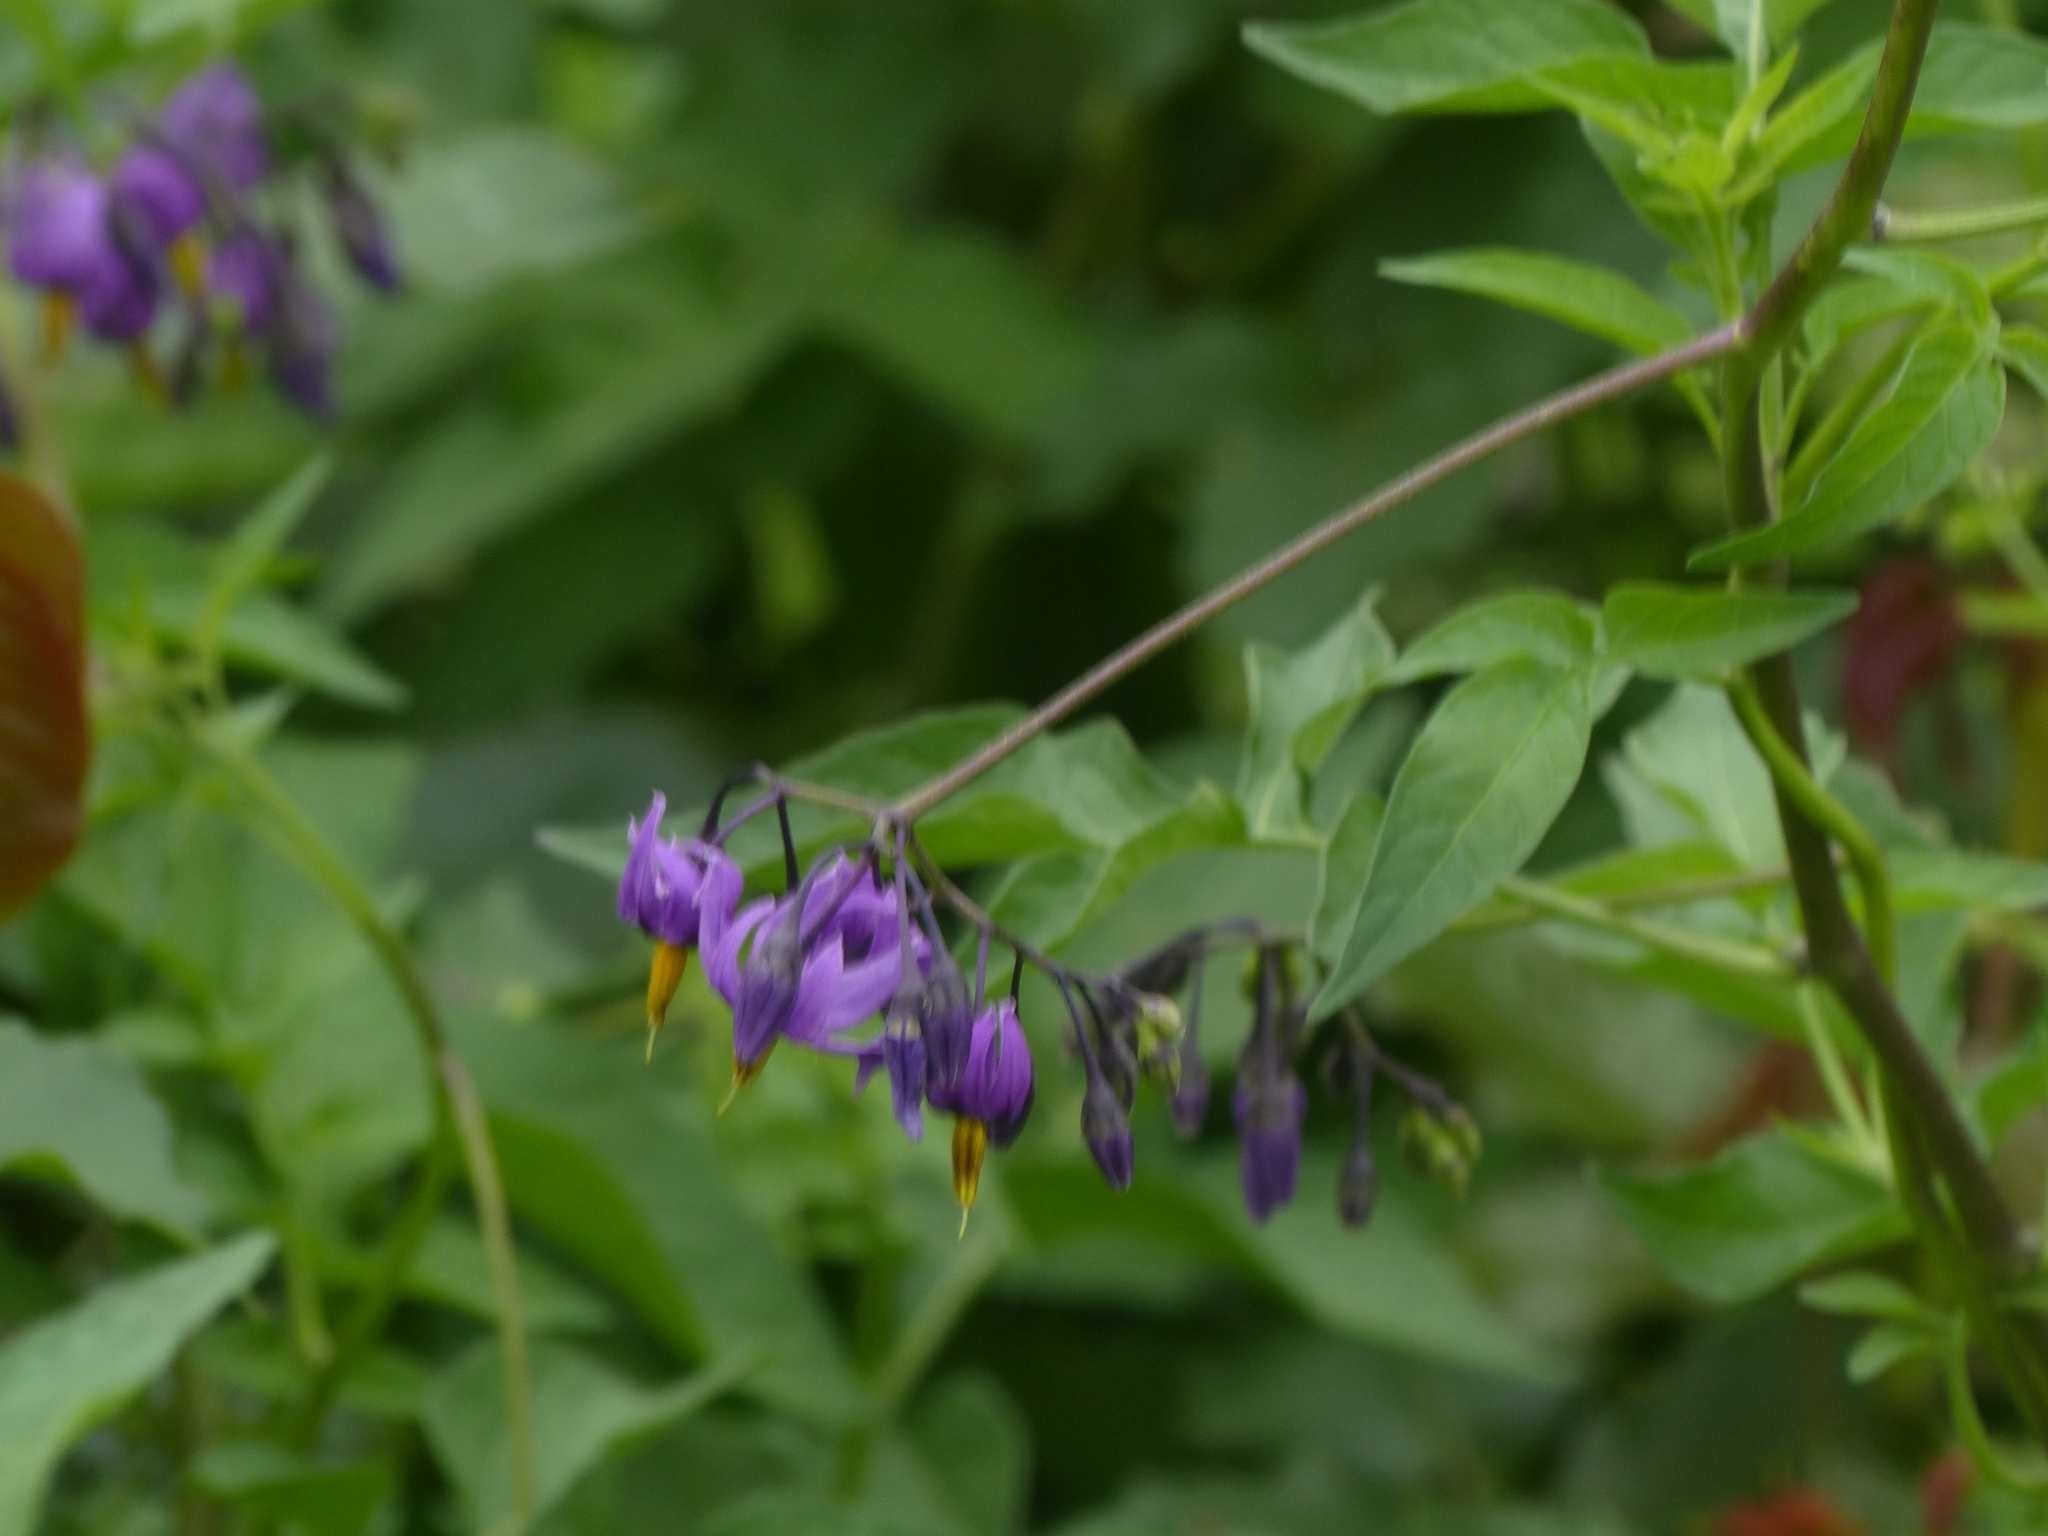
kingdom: Plantae
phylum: Tracheophyta
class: Magnoliopsida
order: Solanales
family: Solanaceae
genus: Solanum
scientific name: Solanum dulcamara
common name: Climbing nightshade
